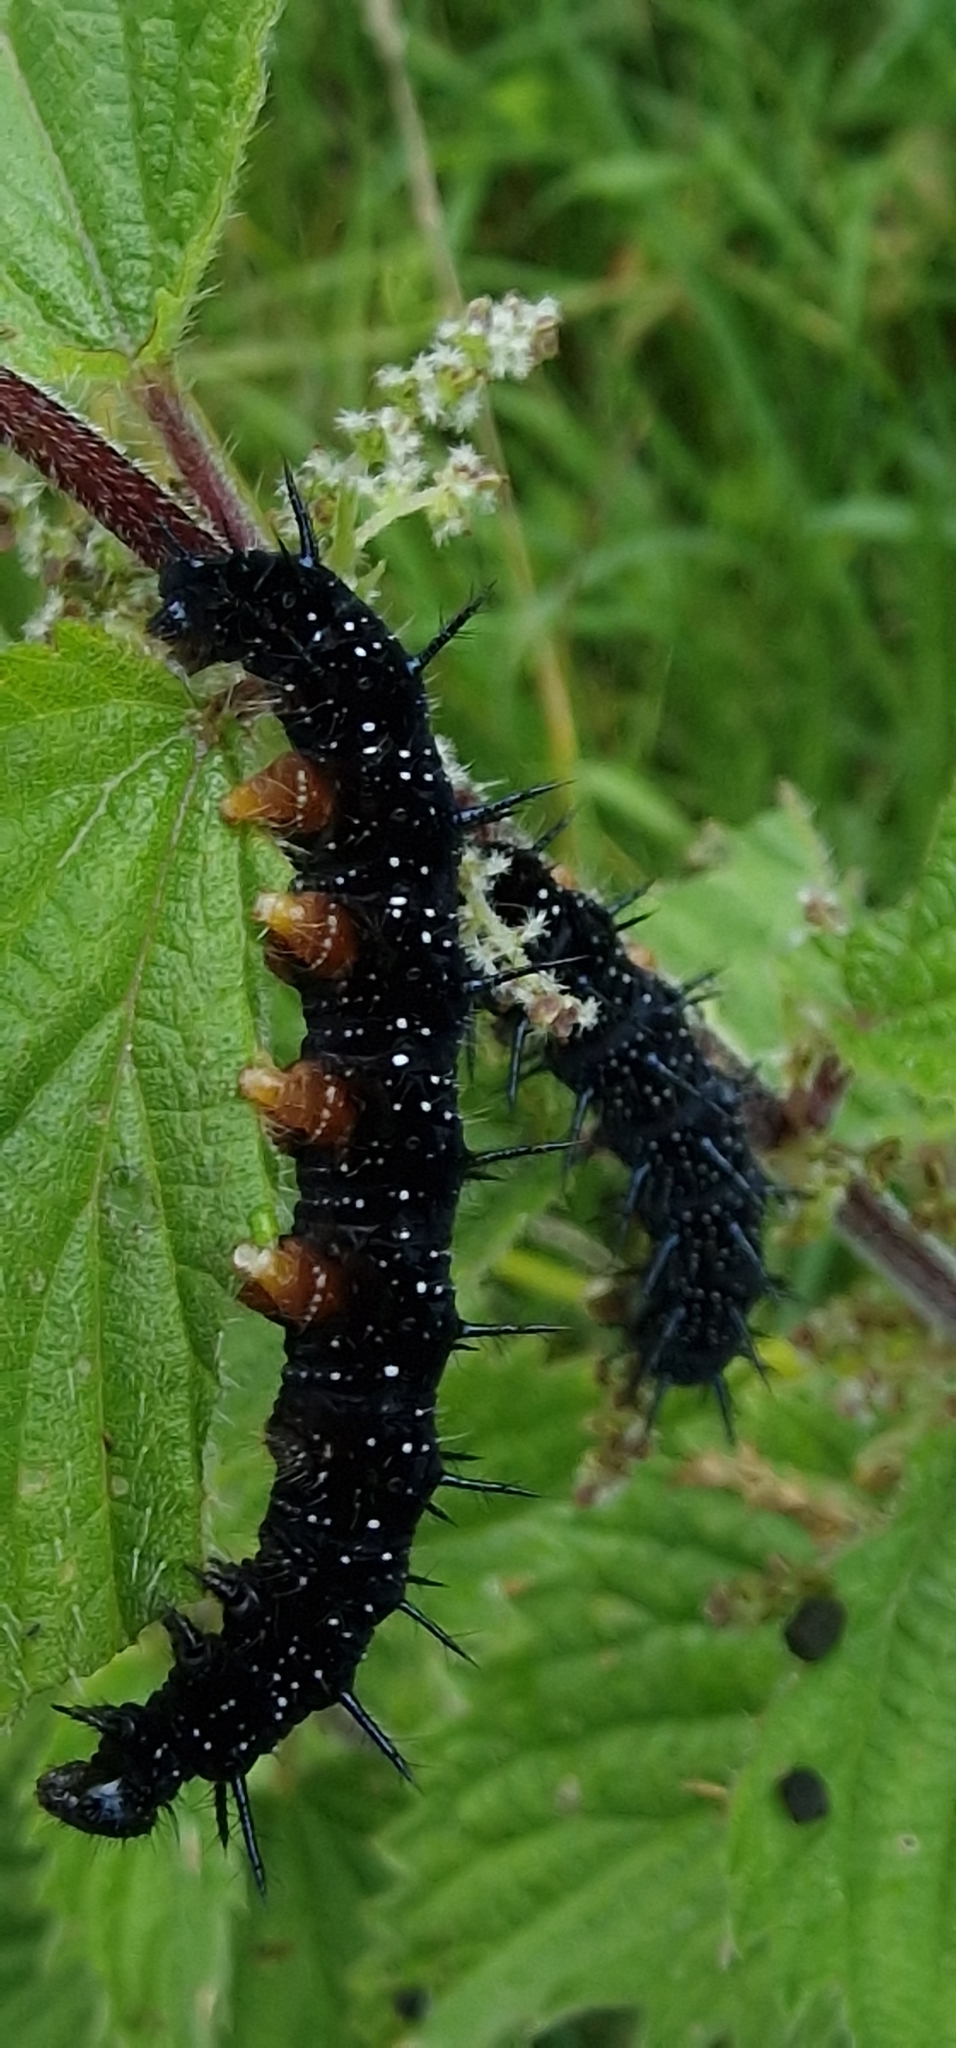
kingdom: Animalia
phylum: Arthropoda
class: Insecta
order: Lepidoptera
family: Nymphalidae
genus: Aglais
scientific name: Aglais io
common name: Peacock
